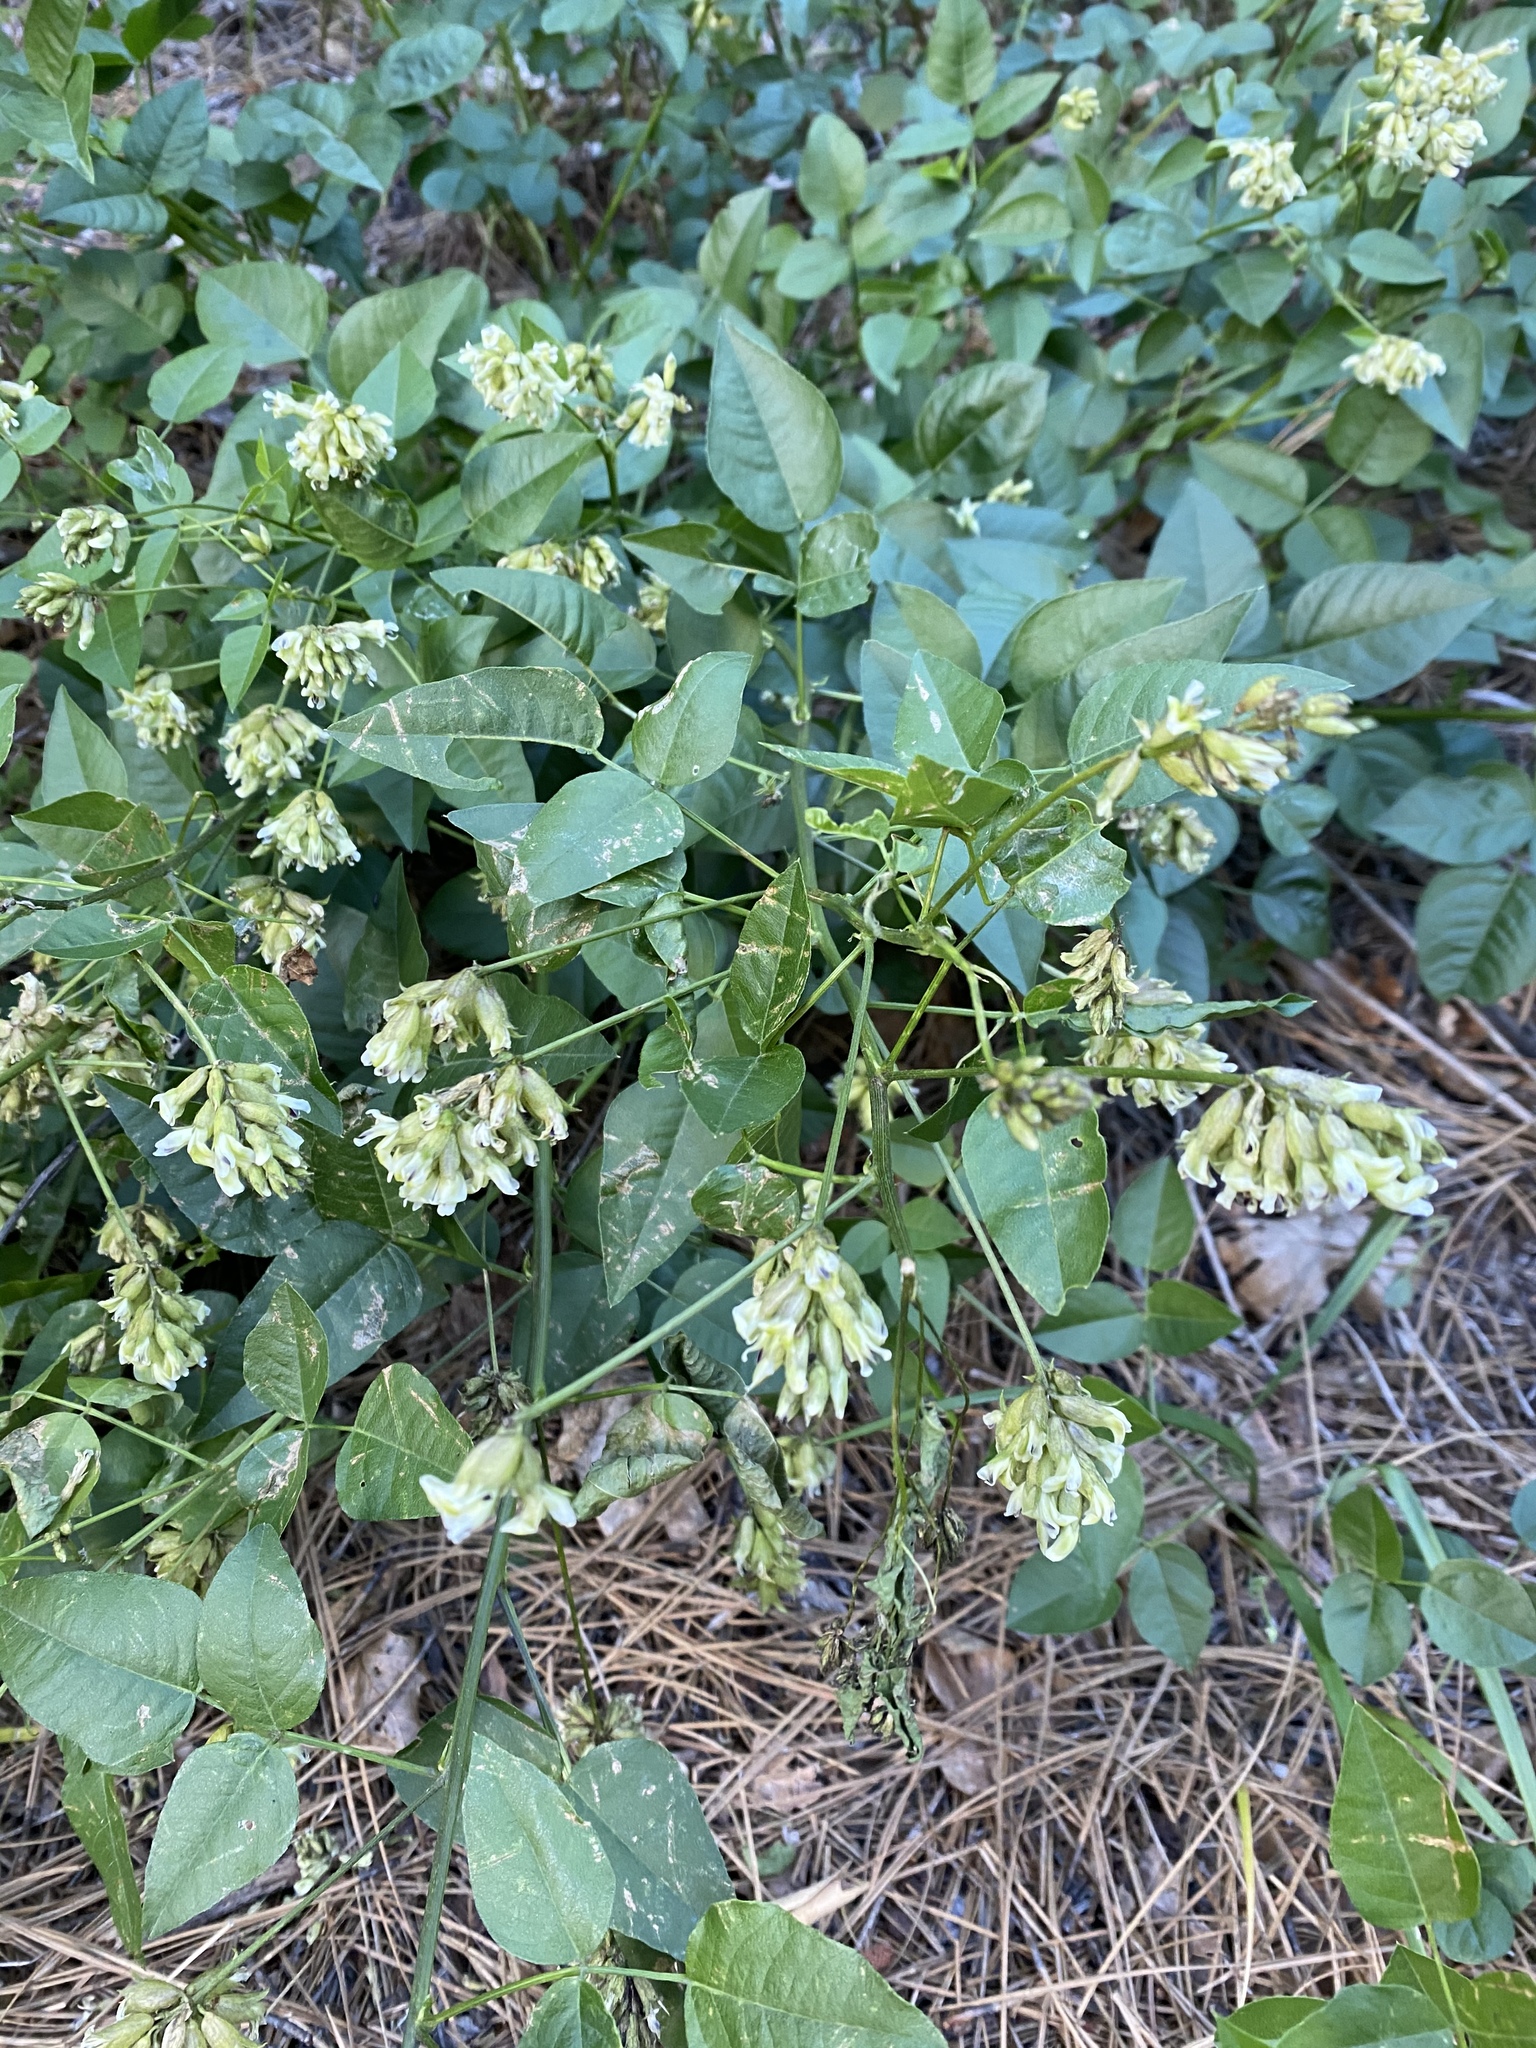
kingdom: Plantae
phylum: Tracheophyta
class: Magnoliopsida
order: Fabales
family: Fabaceae
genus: Rupertia
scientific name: Rupertia physodes
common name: California-tea
